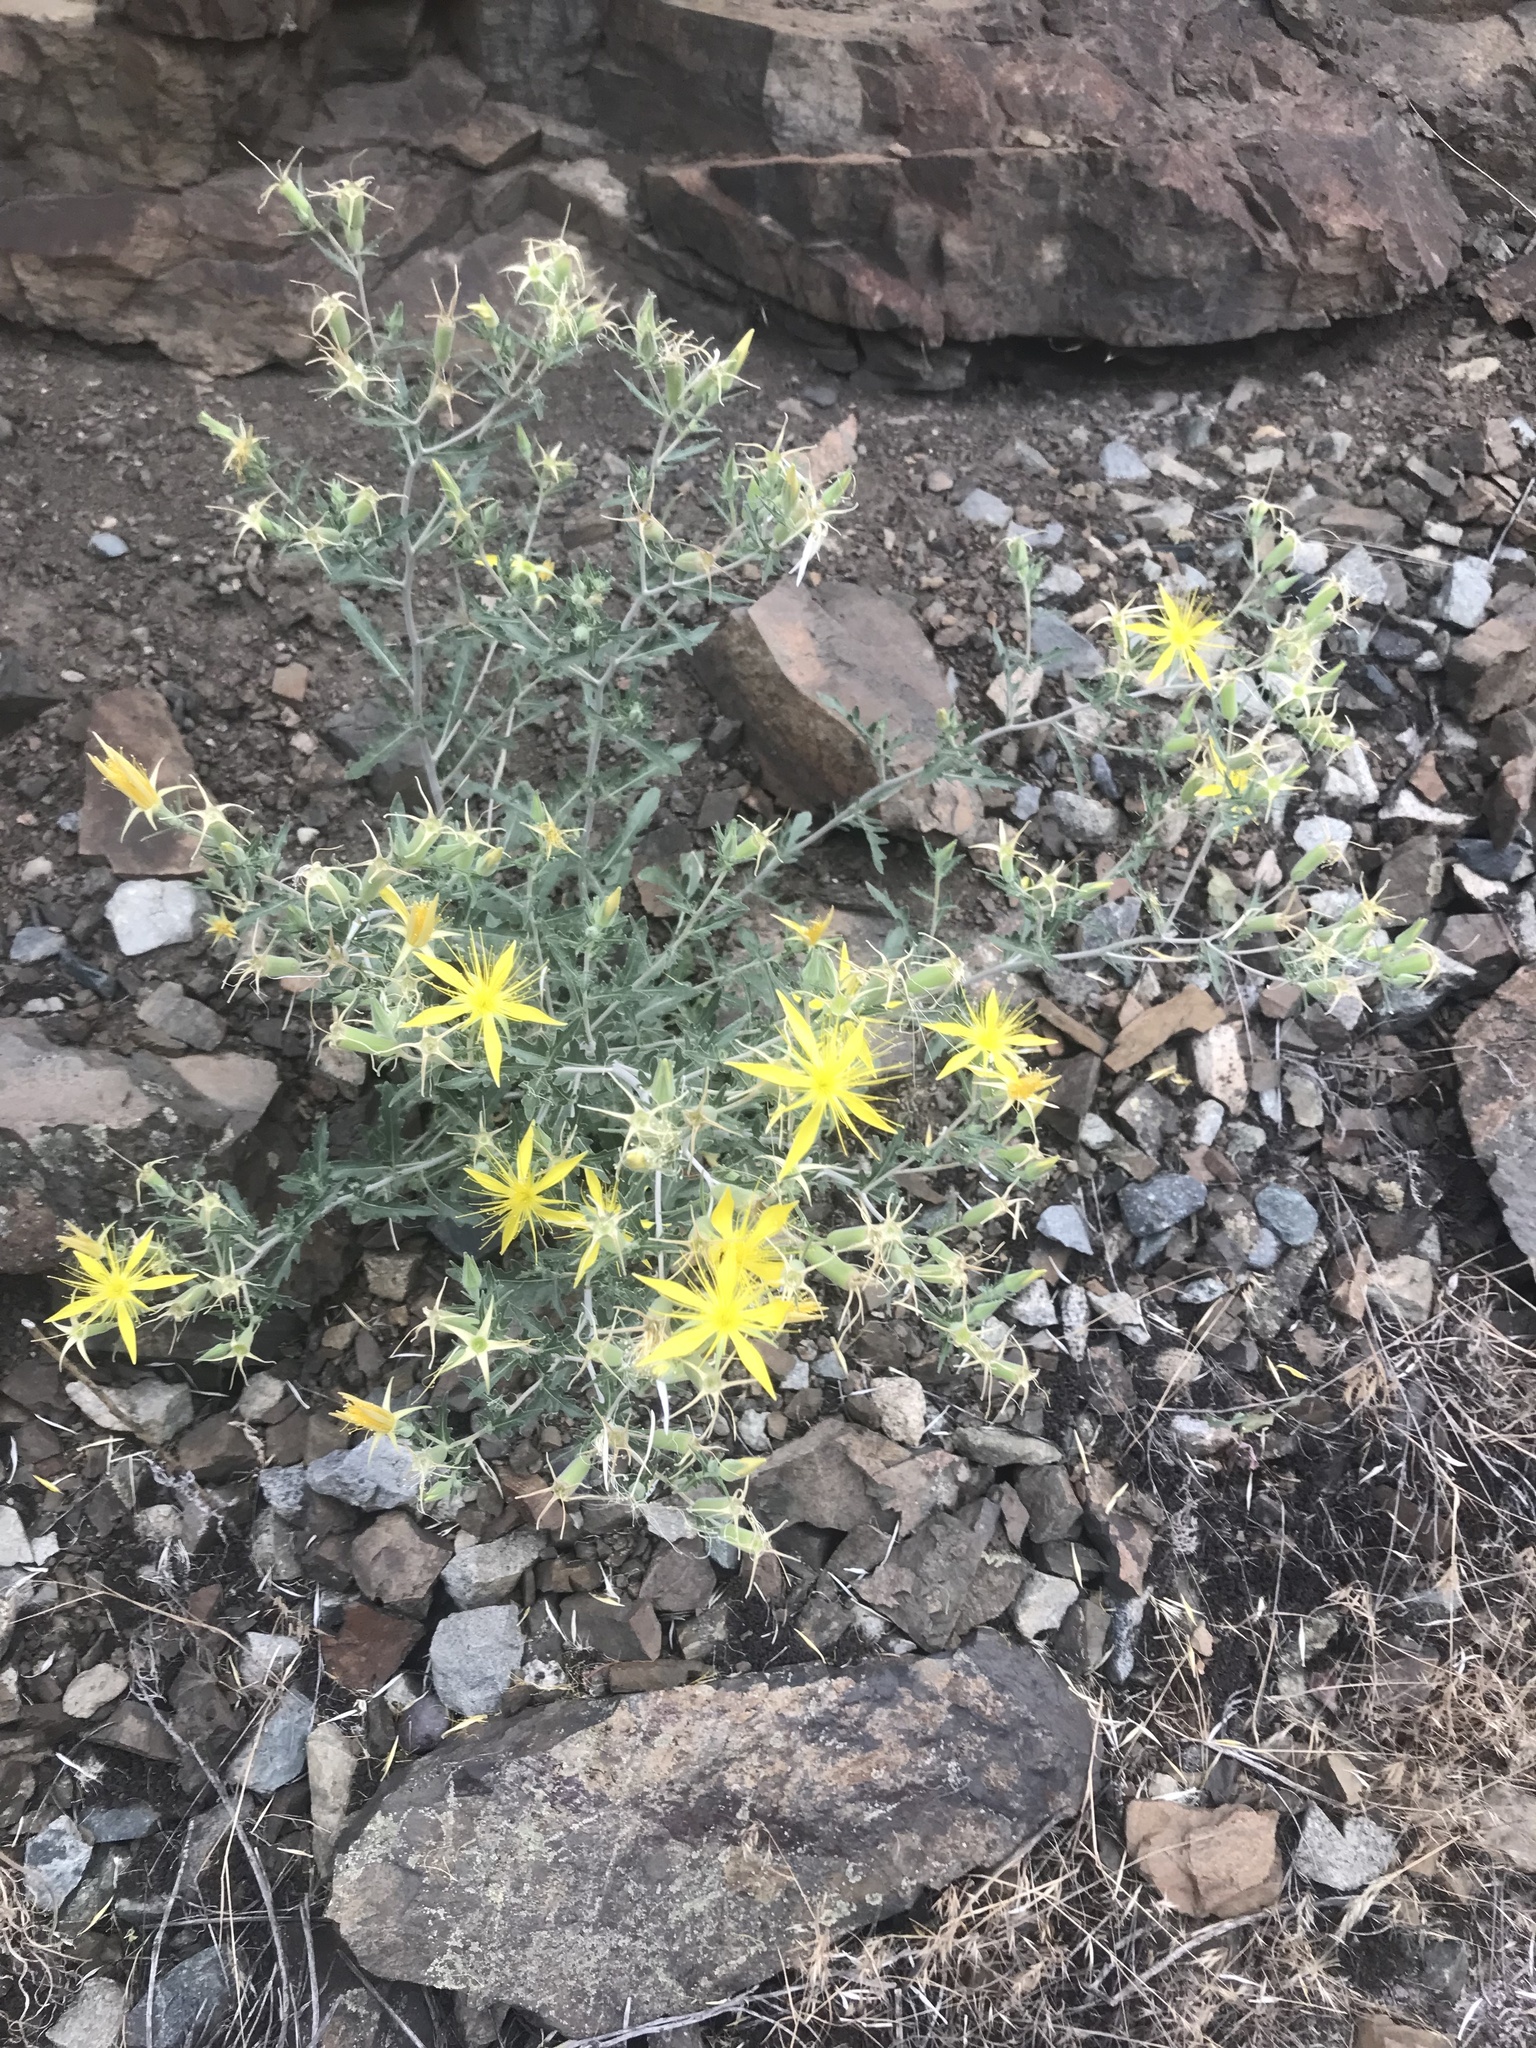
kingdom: Plantae
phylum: Tracheophyta
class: Magnoliopsida
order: Cornales
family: Loasaceae
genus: Mentzelia
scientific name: Mentzelia laevicaulis
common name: Smooth-stem blazingstar
